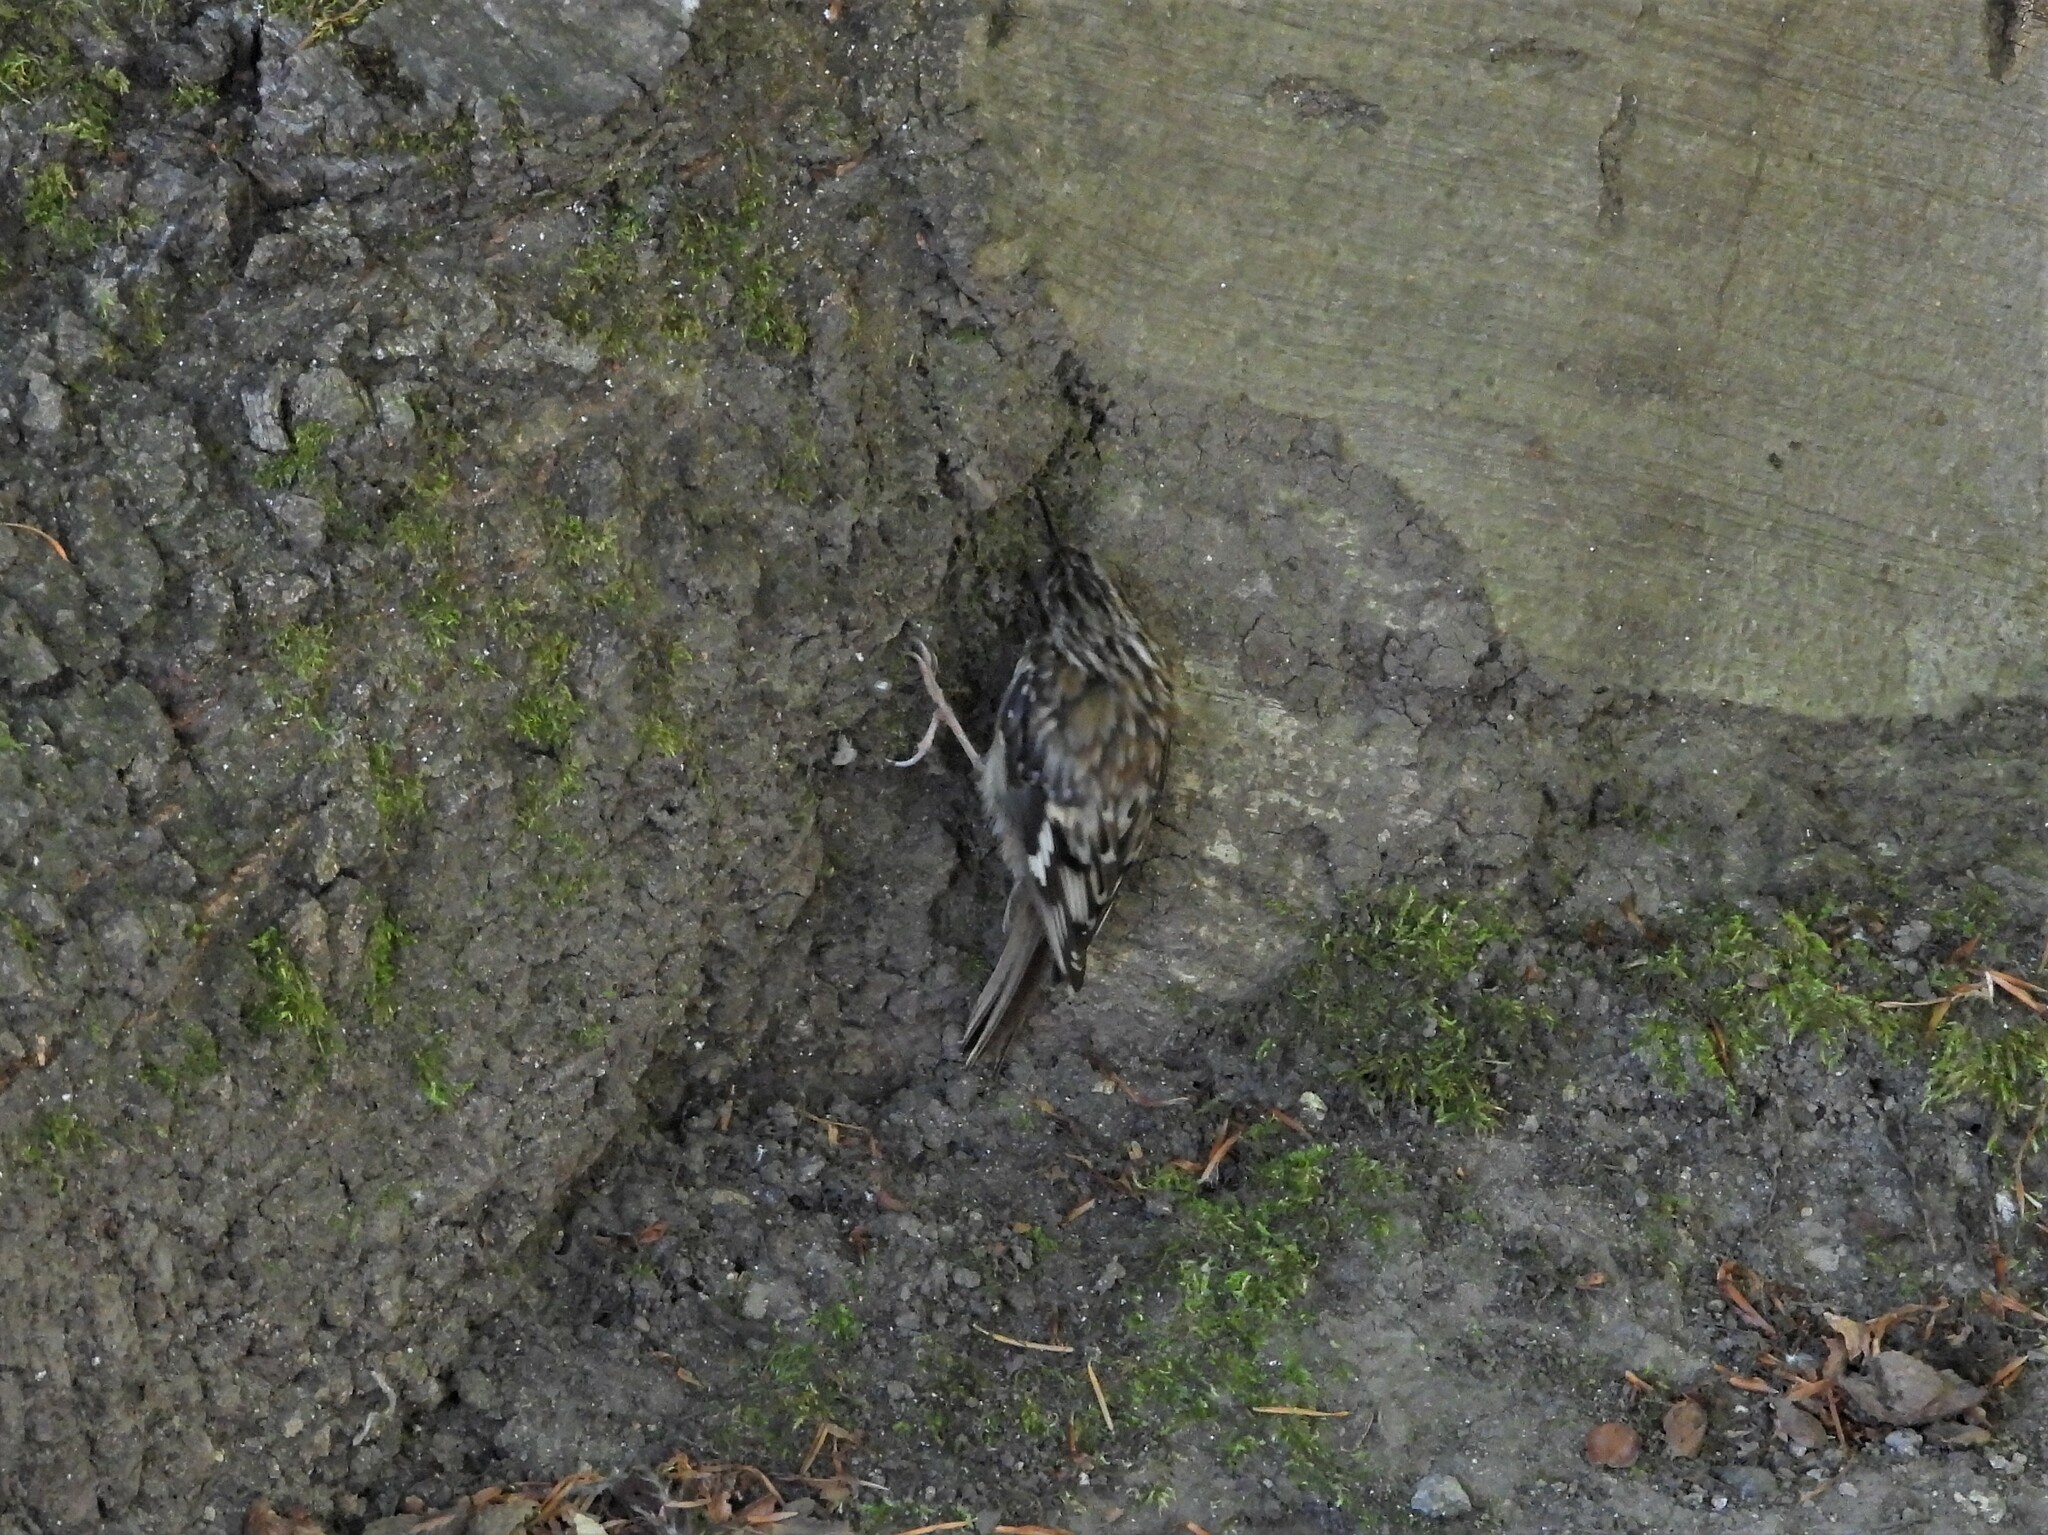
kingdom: Animalia
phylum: Chordata
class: Aves
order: Passeriformes
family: Certhiidae
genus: Certhia
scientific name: Certhia americana
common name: Brown creeper
